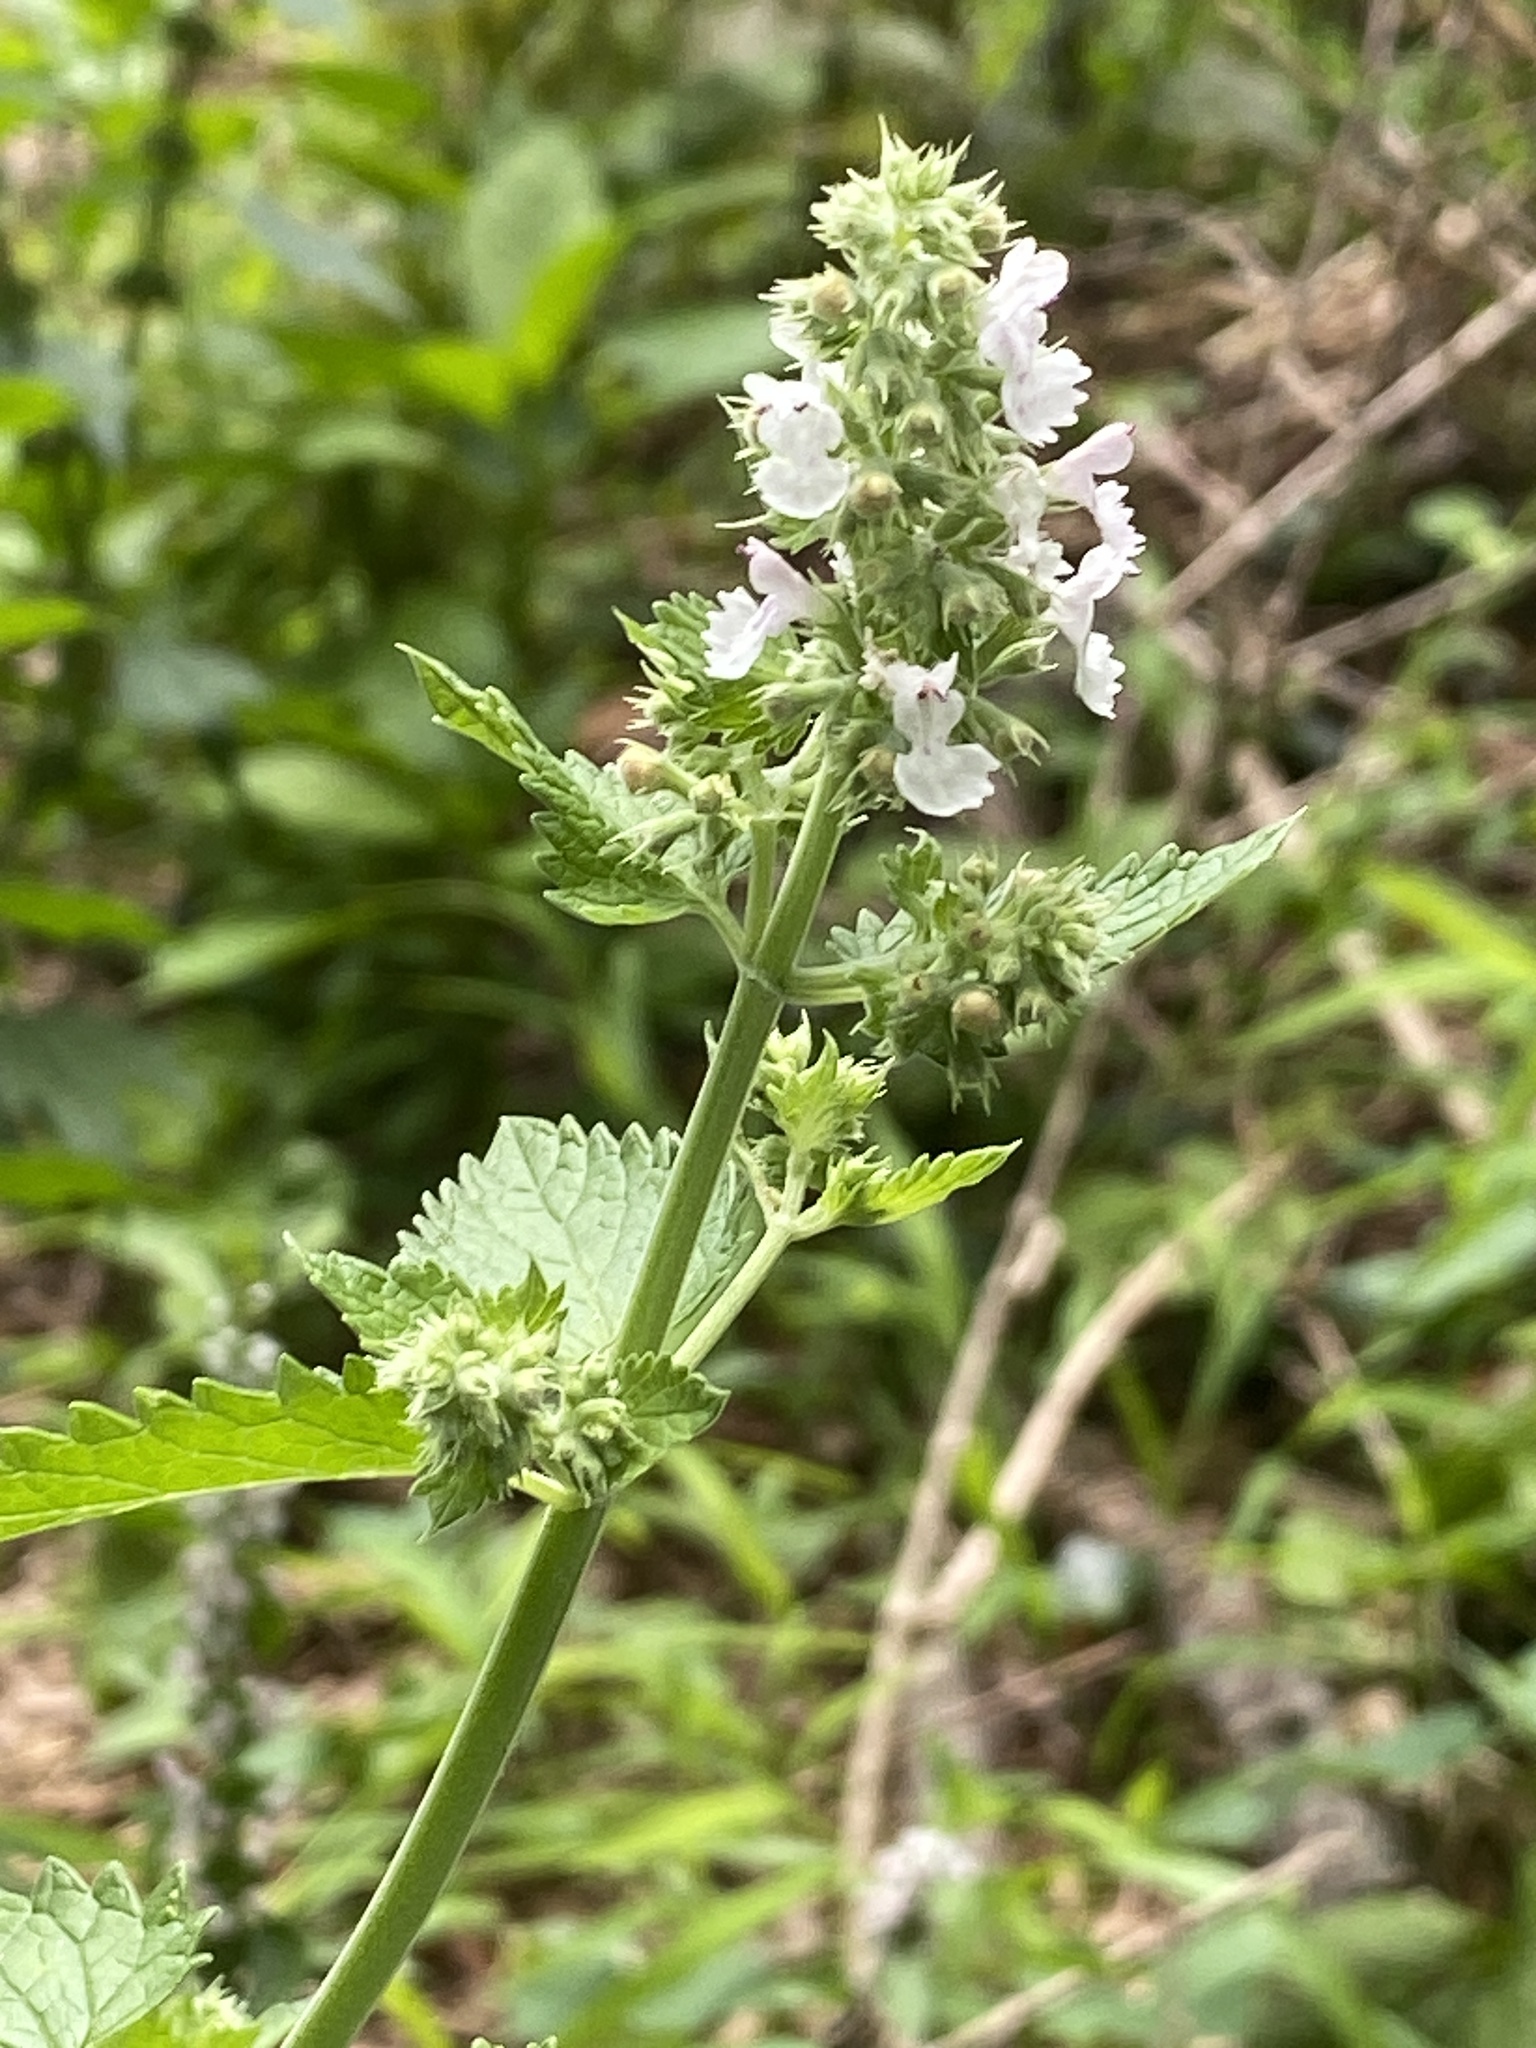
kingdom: Plantae
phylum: Tracheophyta
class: Magnoliopsida
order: Lamiales
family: Lamiaceae
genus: Nepeta
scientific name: Nepeta cataria
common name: Catnip
